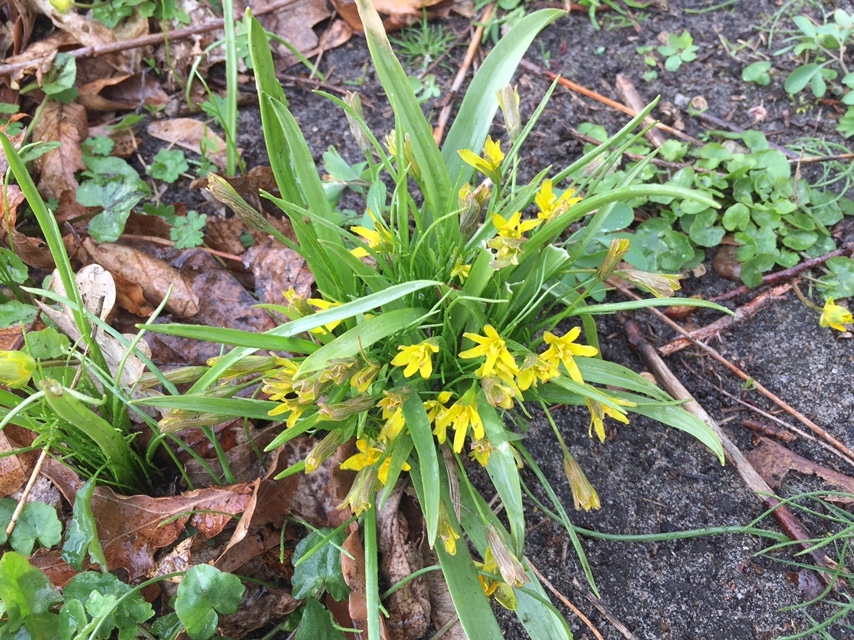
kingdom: Plantae
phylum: Tracheophyta
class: Liliopsida
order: Liliales
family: Liliaceae
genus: Gagea
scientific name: Gagea lutea
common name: Yellow star-of-bethlehem
